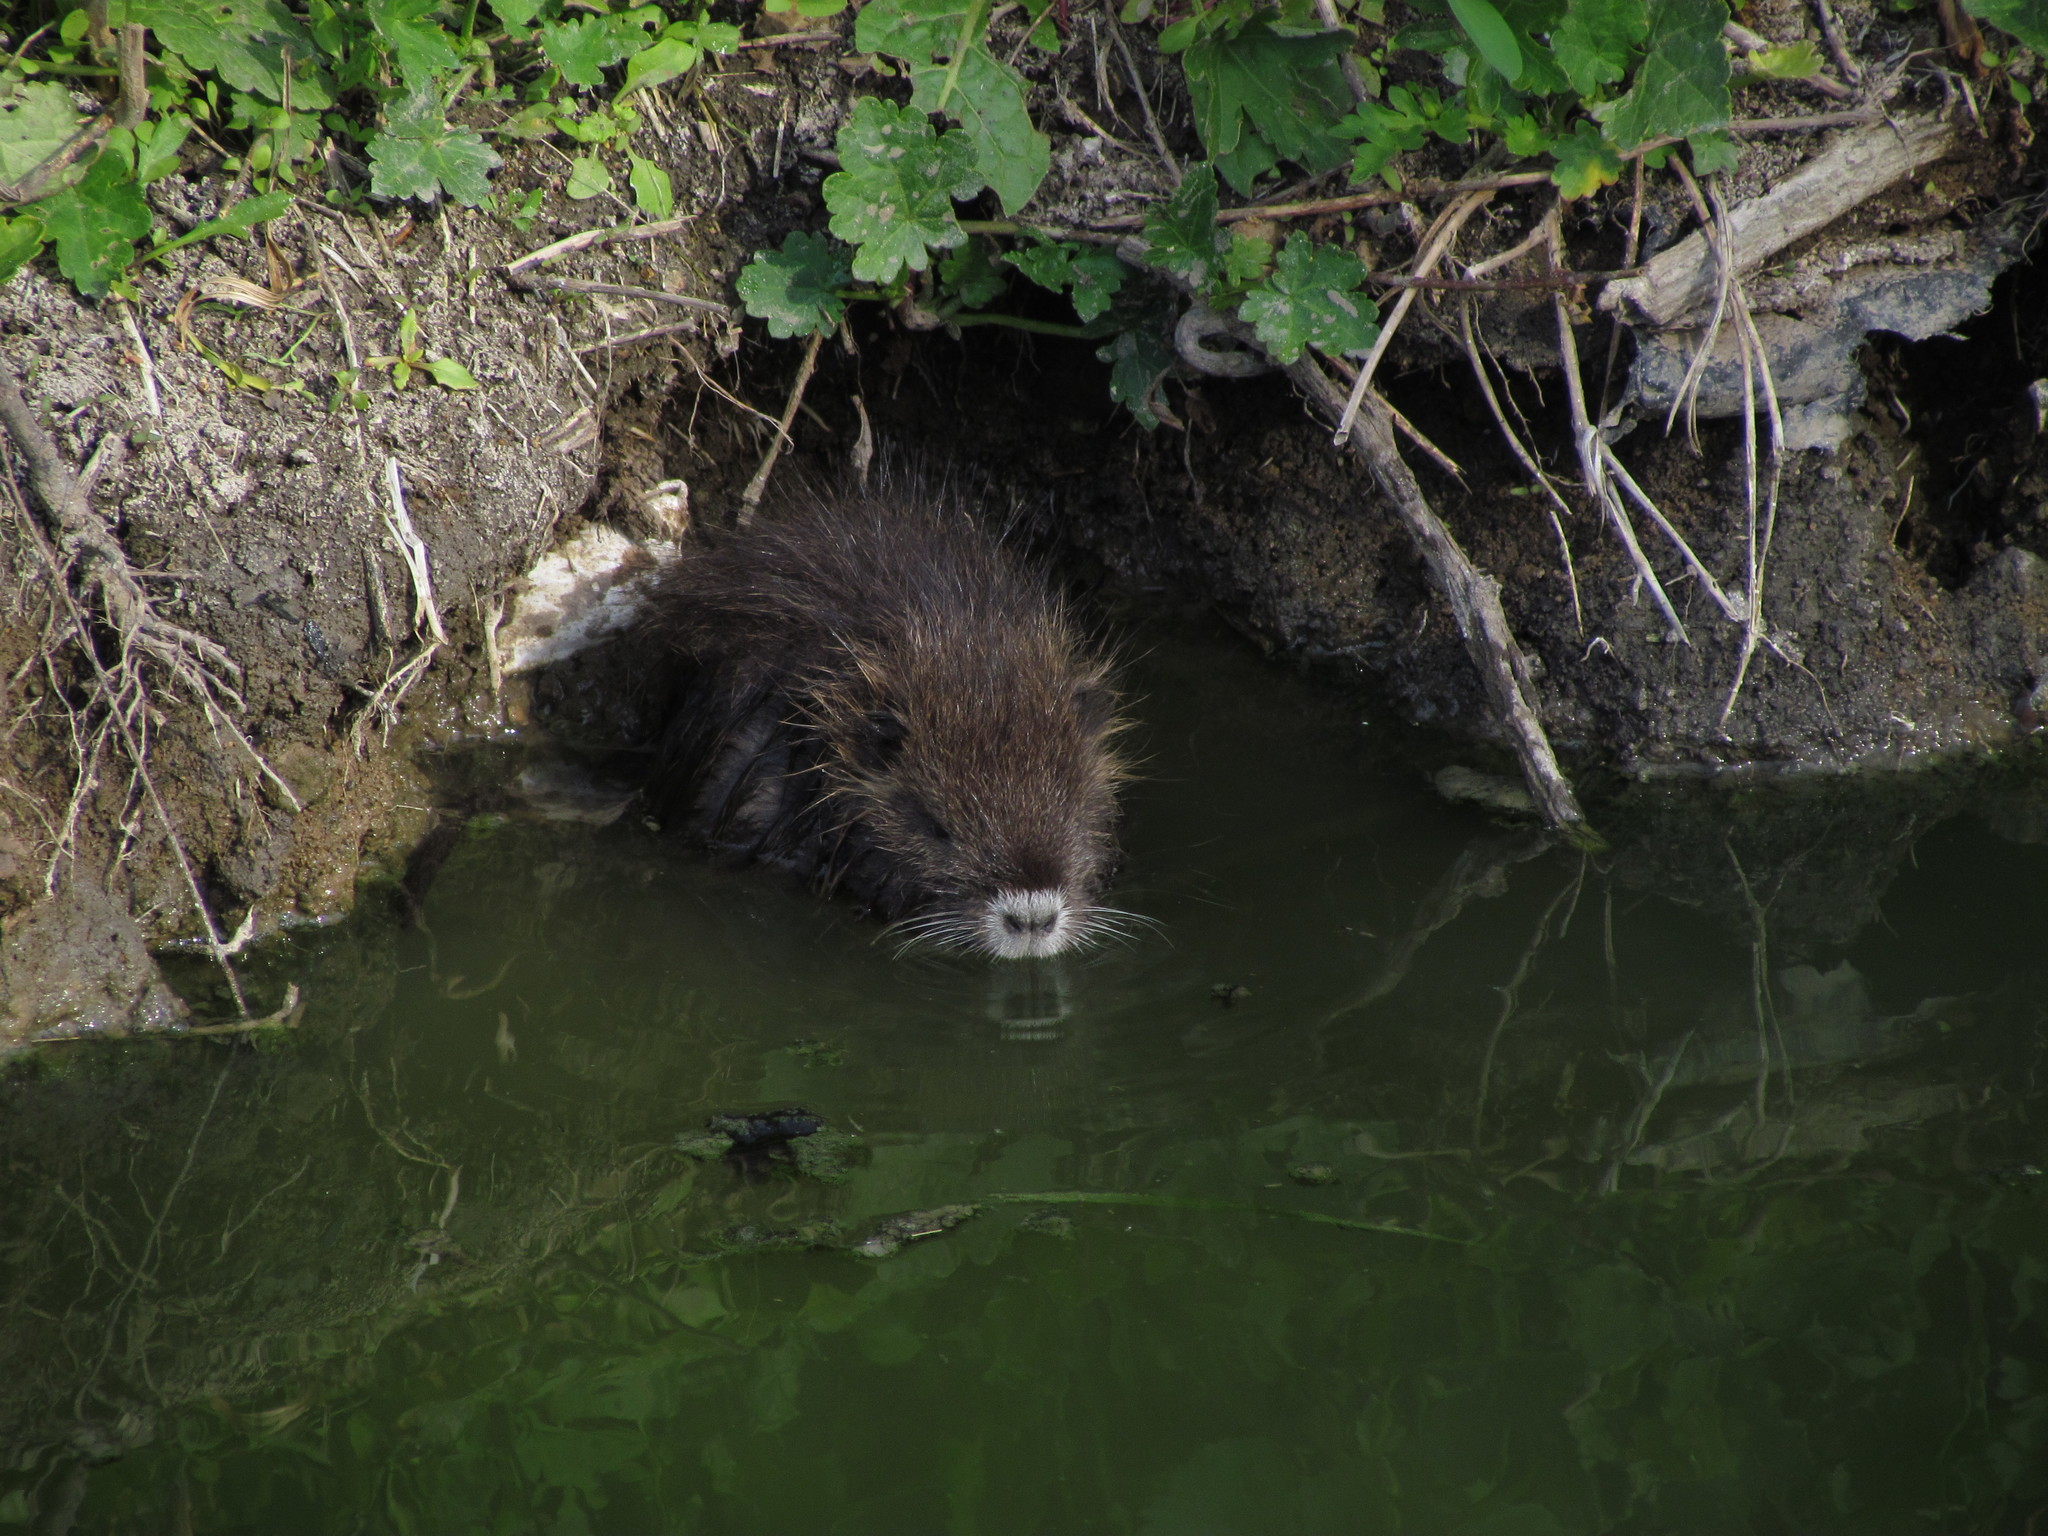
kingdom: Animalia
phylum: Chordata
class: Mammalia
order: Rodentia
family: Myocastoridae
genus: Myocastor
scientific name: Myocastor coypus
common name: Coypu
